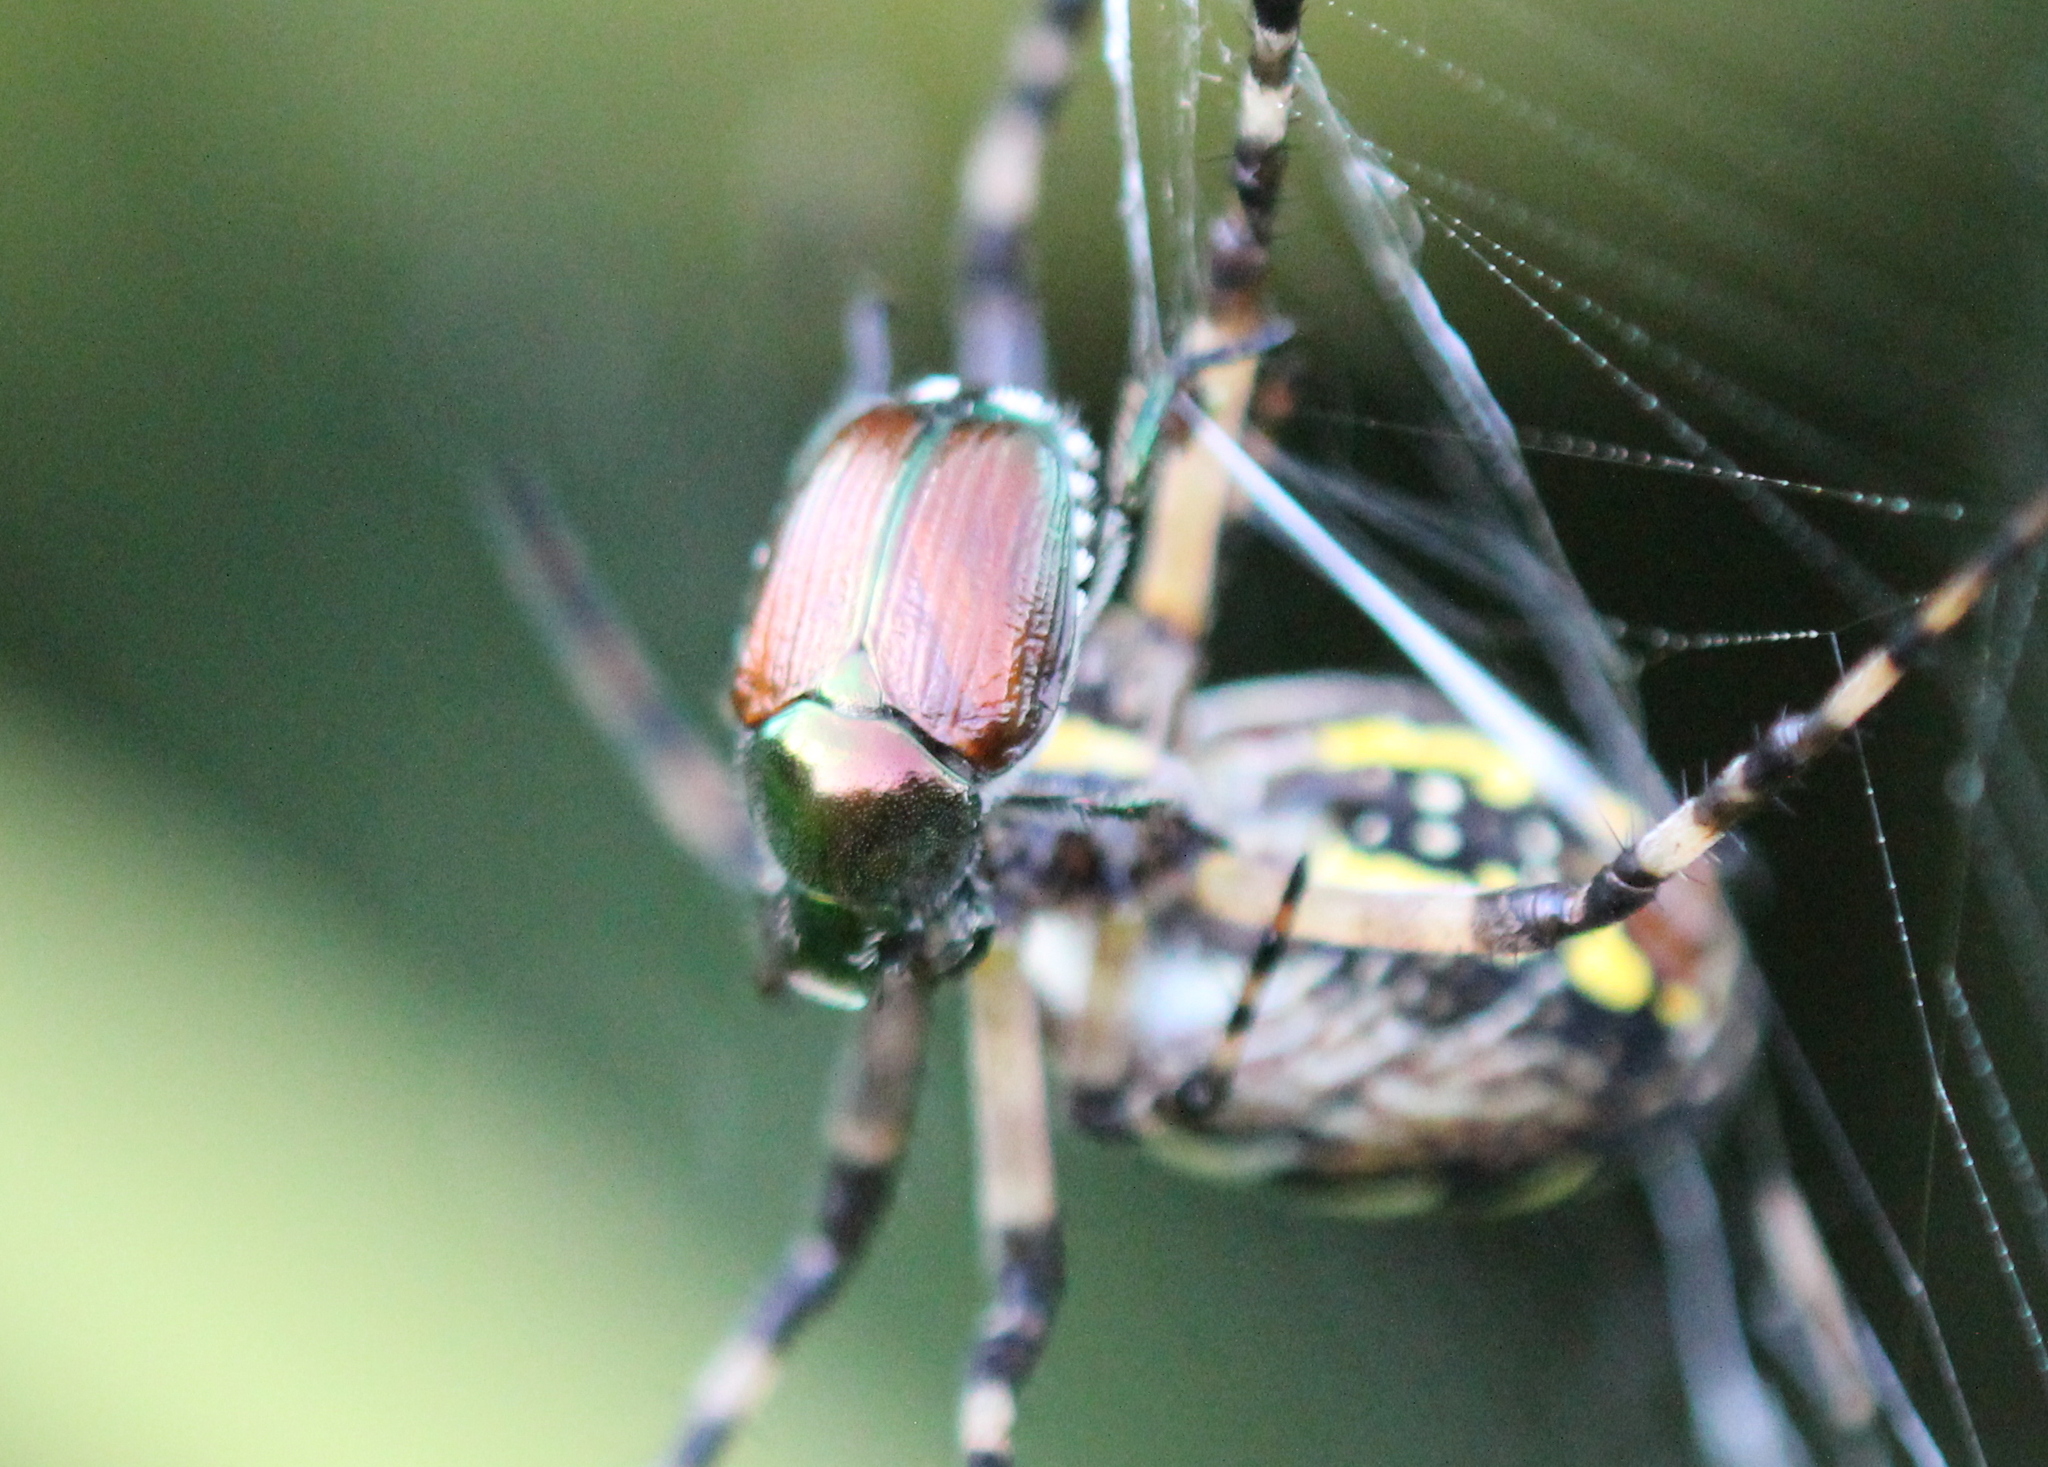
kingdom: Animalia
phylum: Arthropoda
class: Insecta
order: Coleoptera
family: Scarabaeidae
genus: Popillia
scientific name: Popillia japonica
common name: Japanese beetle
